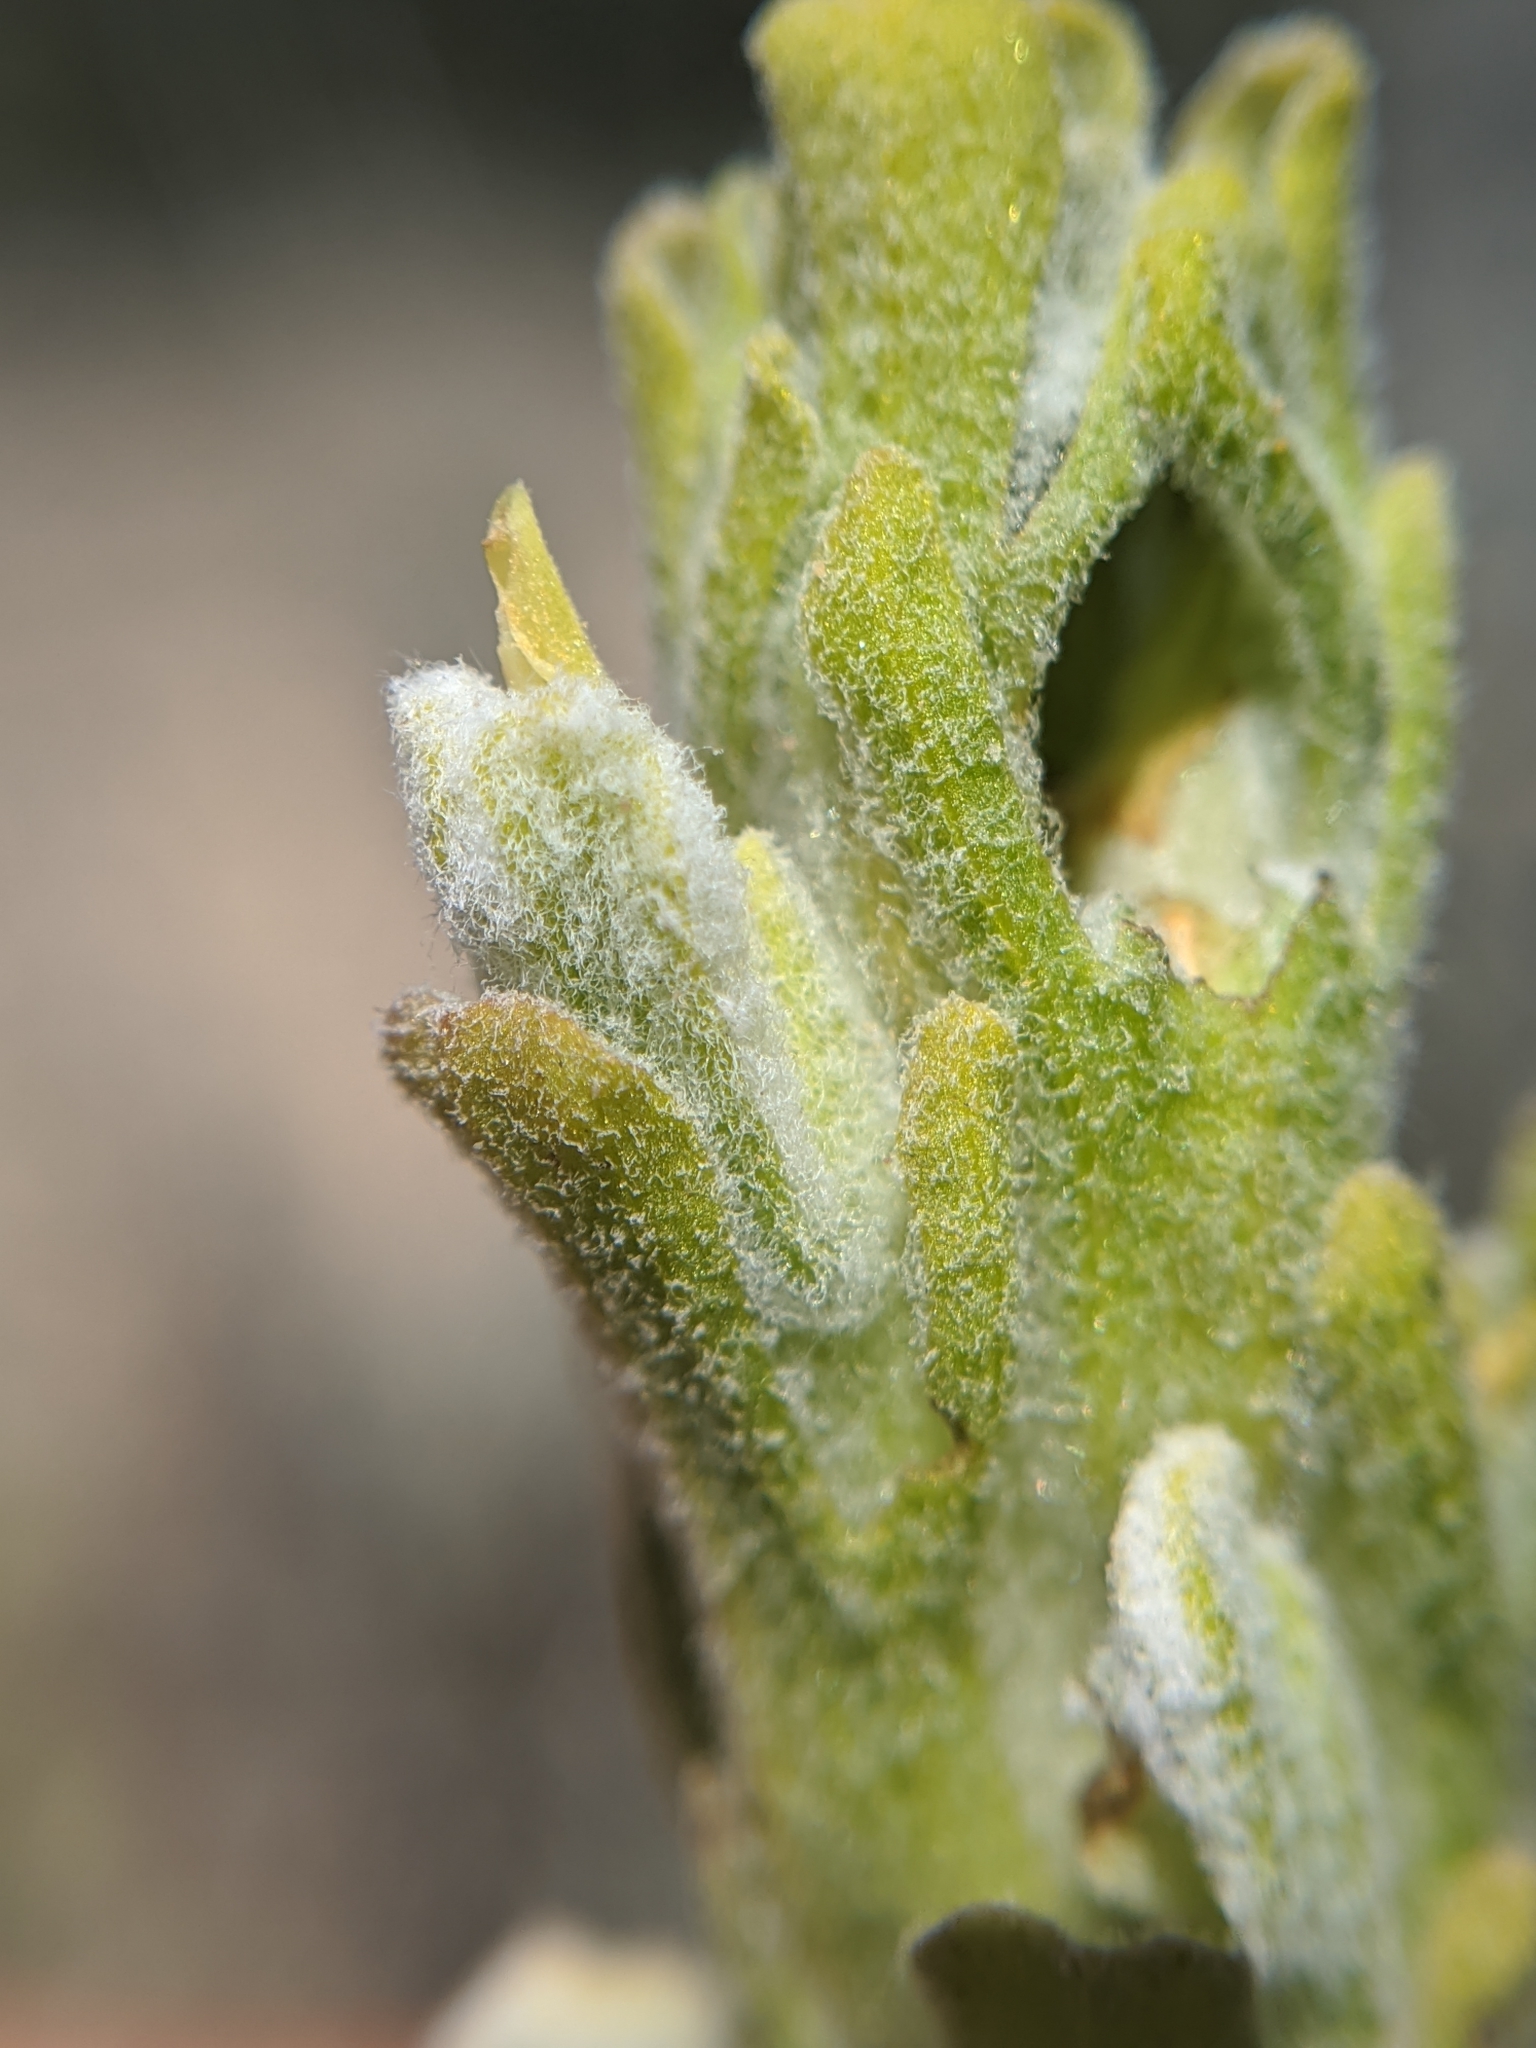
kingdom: Plantae
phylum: Tracheophyta
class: Magnoliopsida
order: Lamiales
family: Orobanchaceae
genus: Castilleja
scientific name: Castilleja plagiotoma
